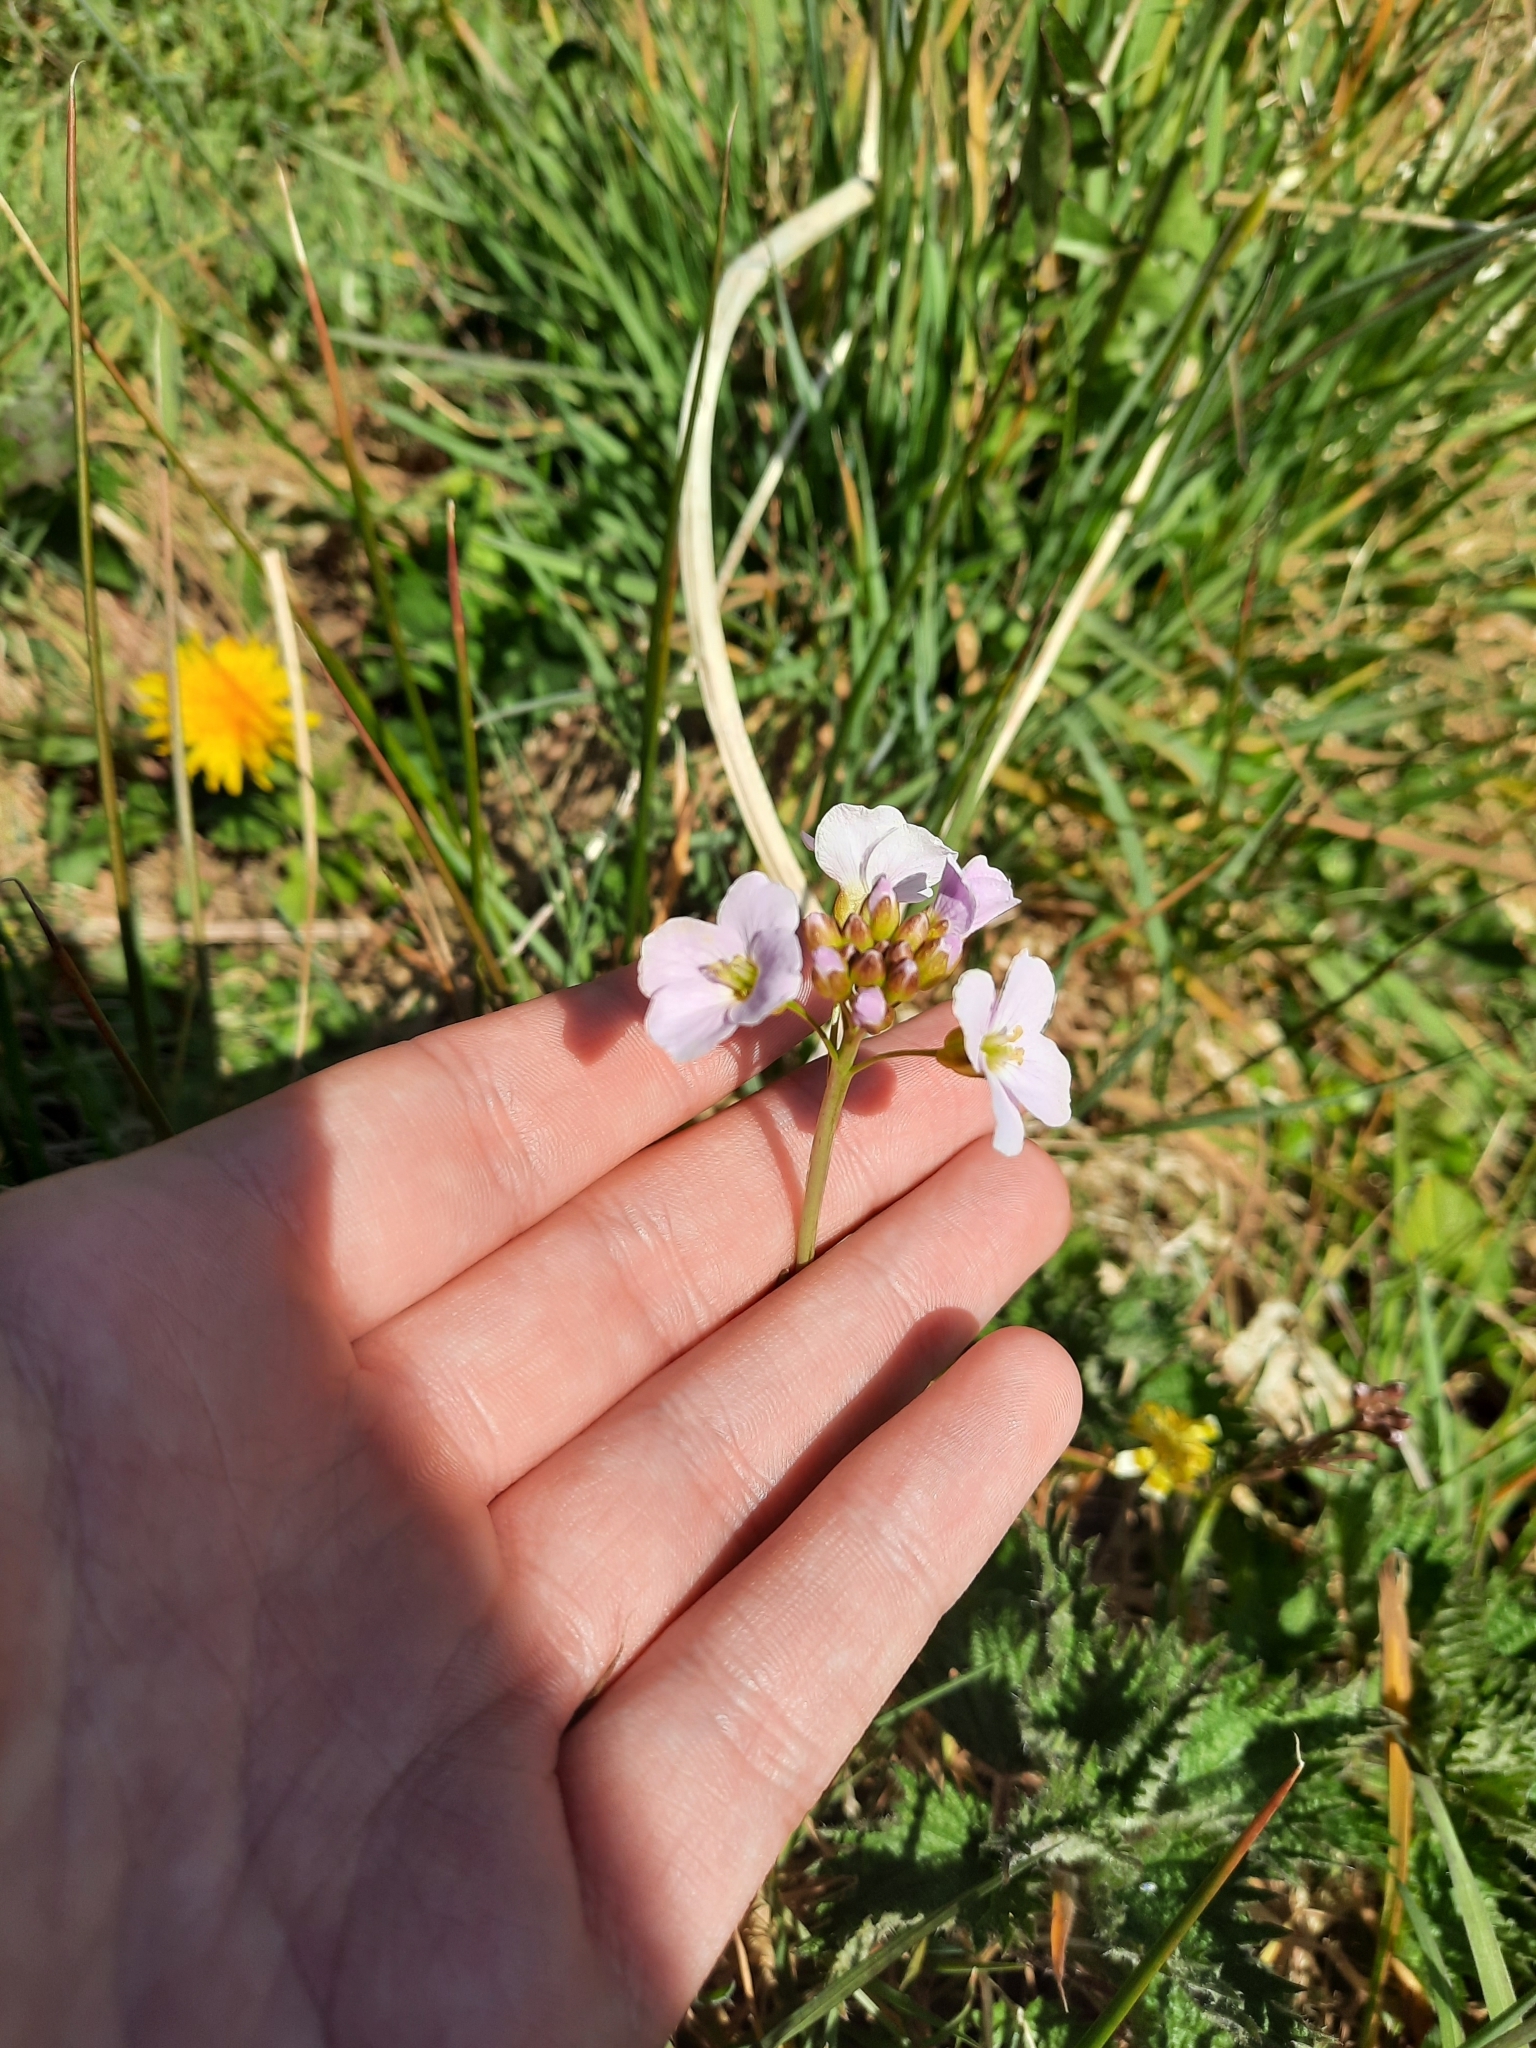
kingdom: Plantae
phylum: Tracheophyta
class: Magnoliopsida
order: Brassicales
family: Brassicaceae
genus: Cardamine
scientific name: Cardamine pratensis
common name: Cuckoo flower
